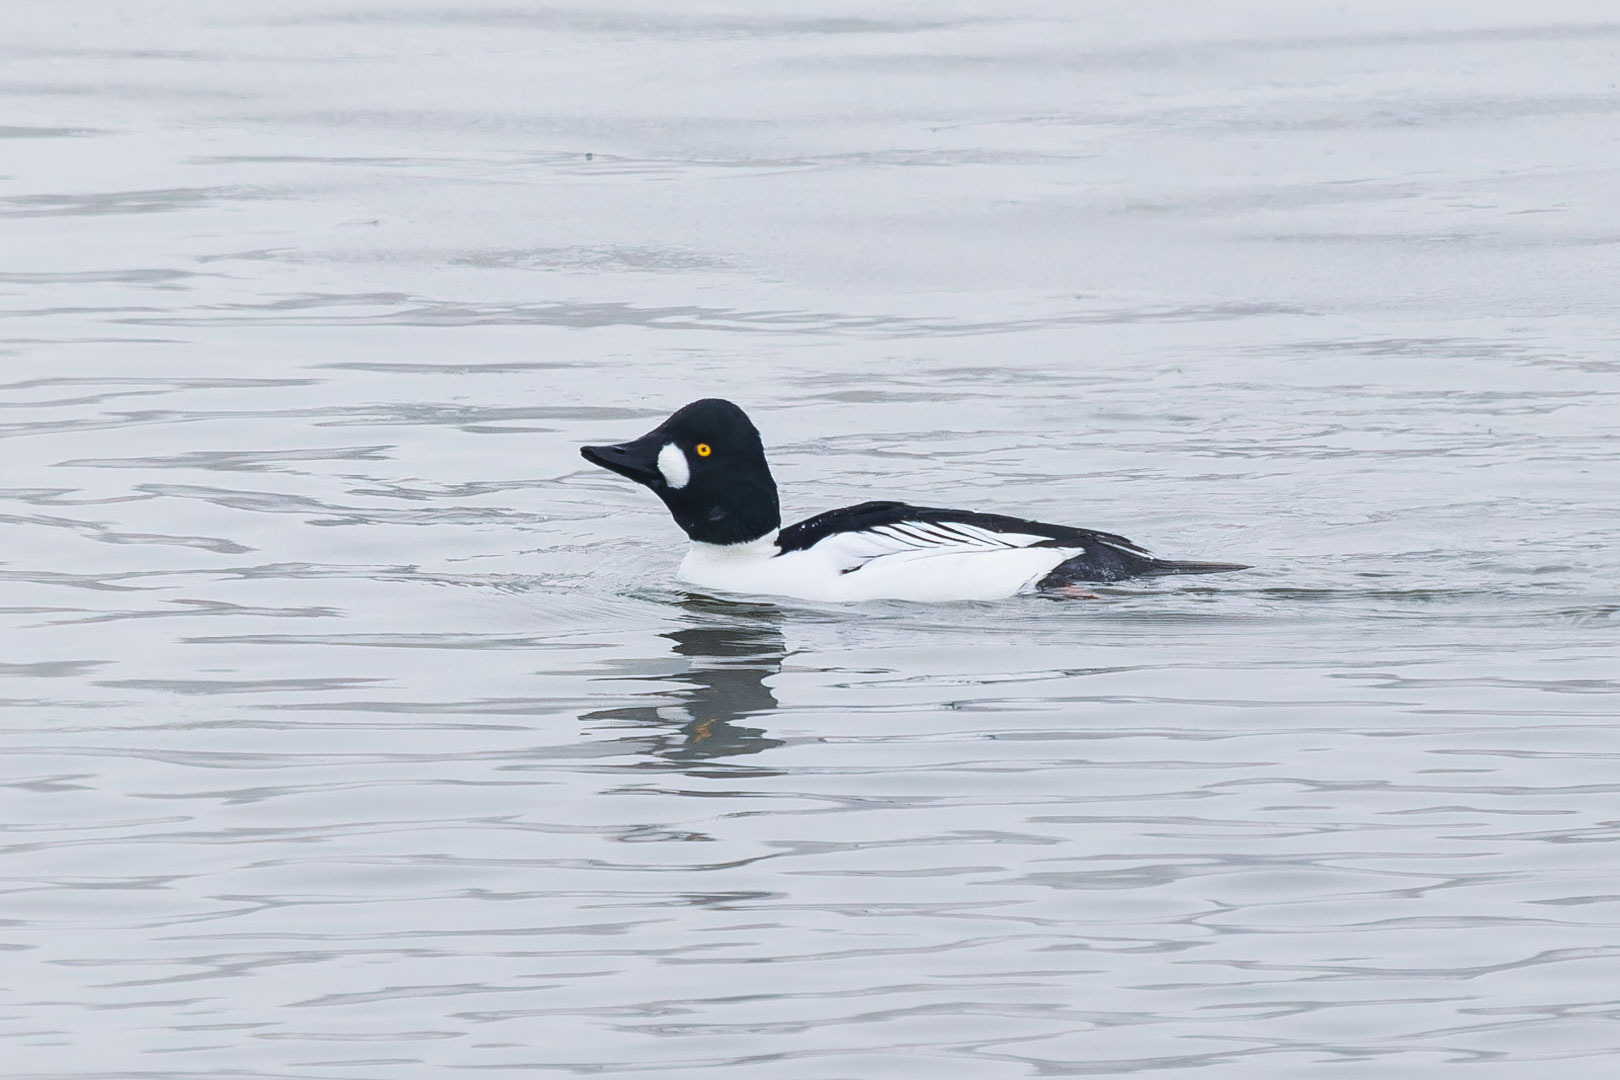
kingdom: Animalia
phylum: Chordata
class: Aves
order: Anseriformes
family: Anatidae
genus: Bucephala
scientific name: Bucephala clangula
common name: Common goldeneye
